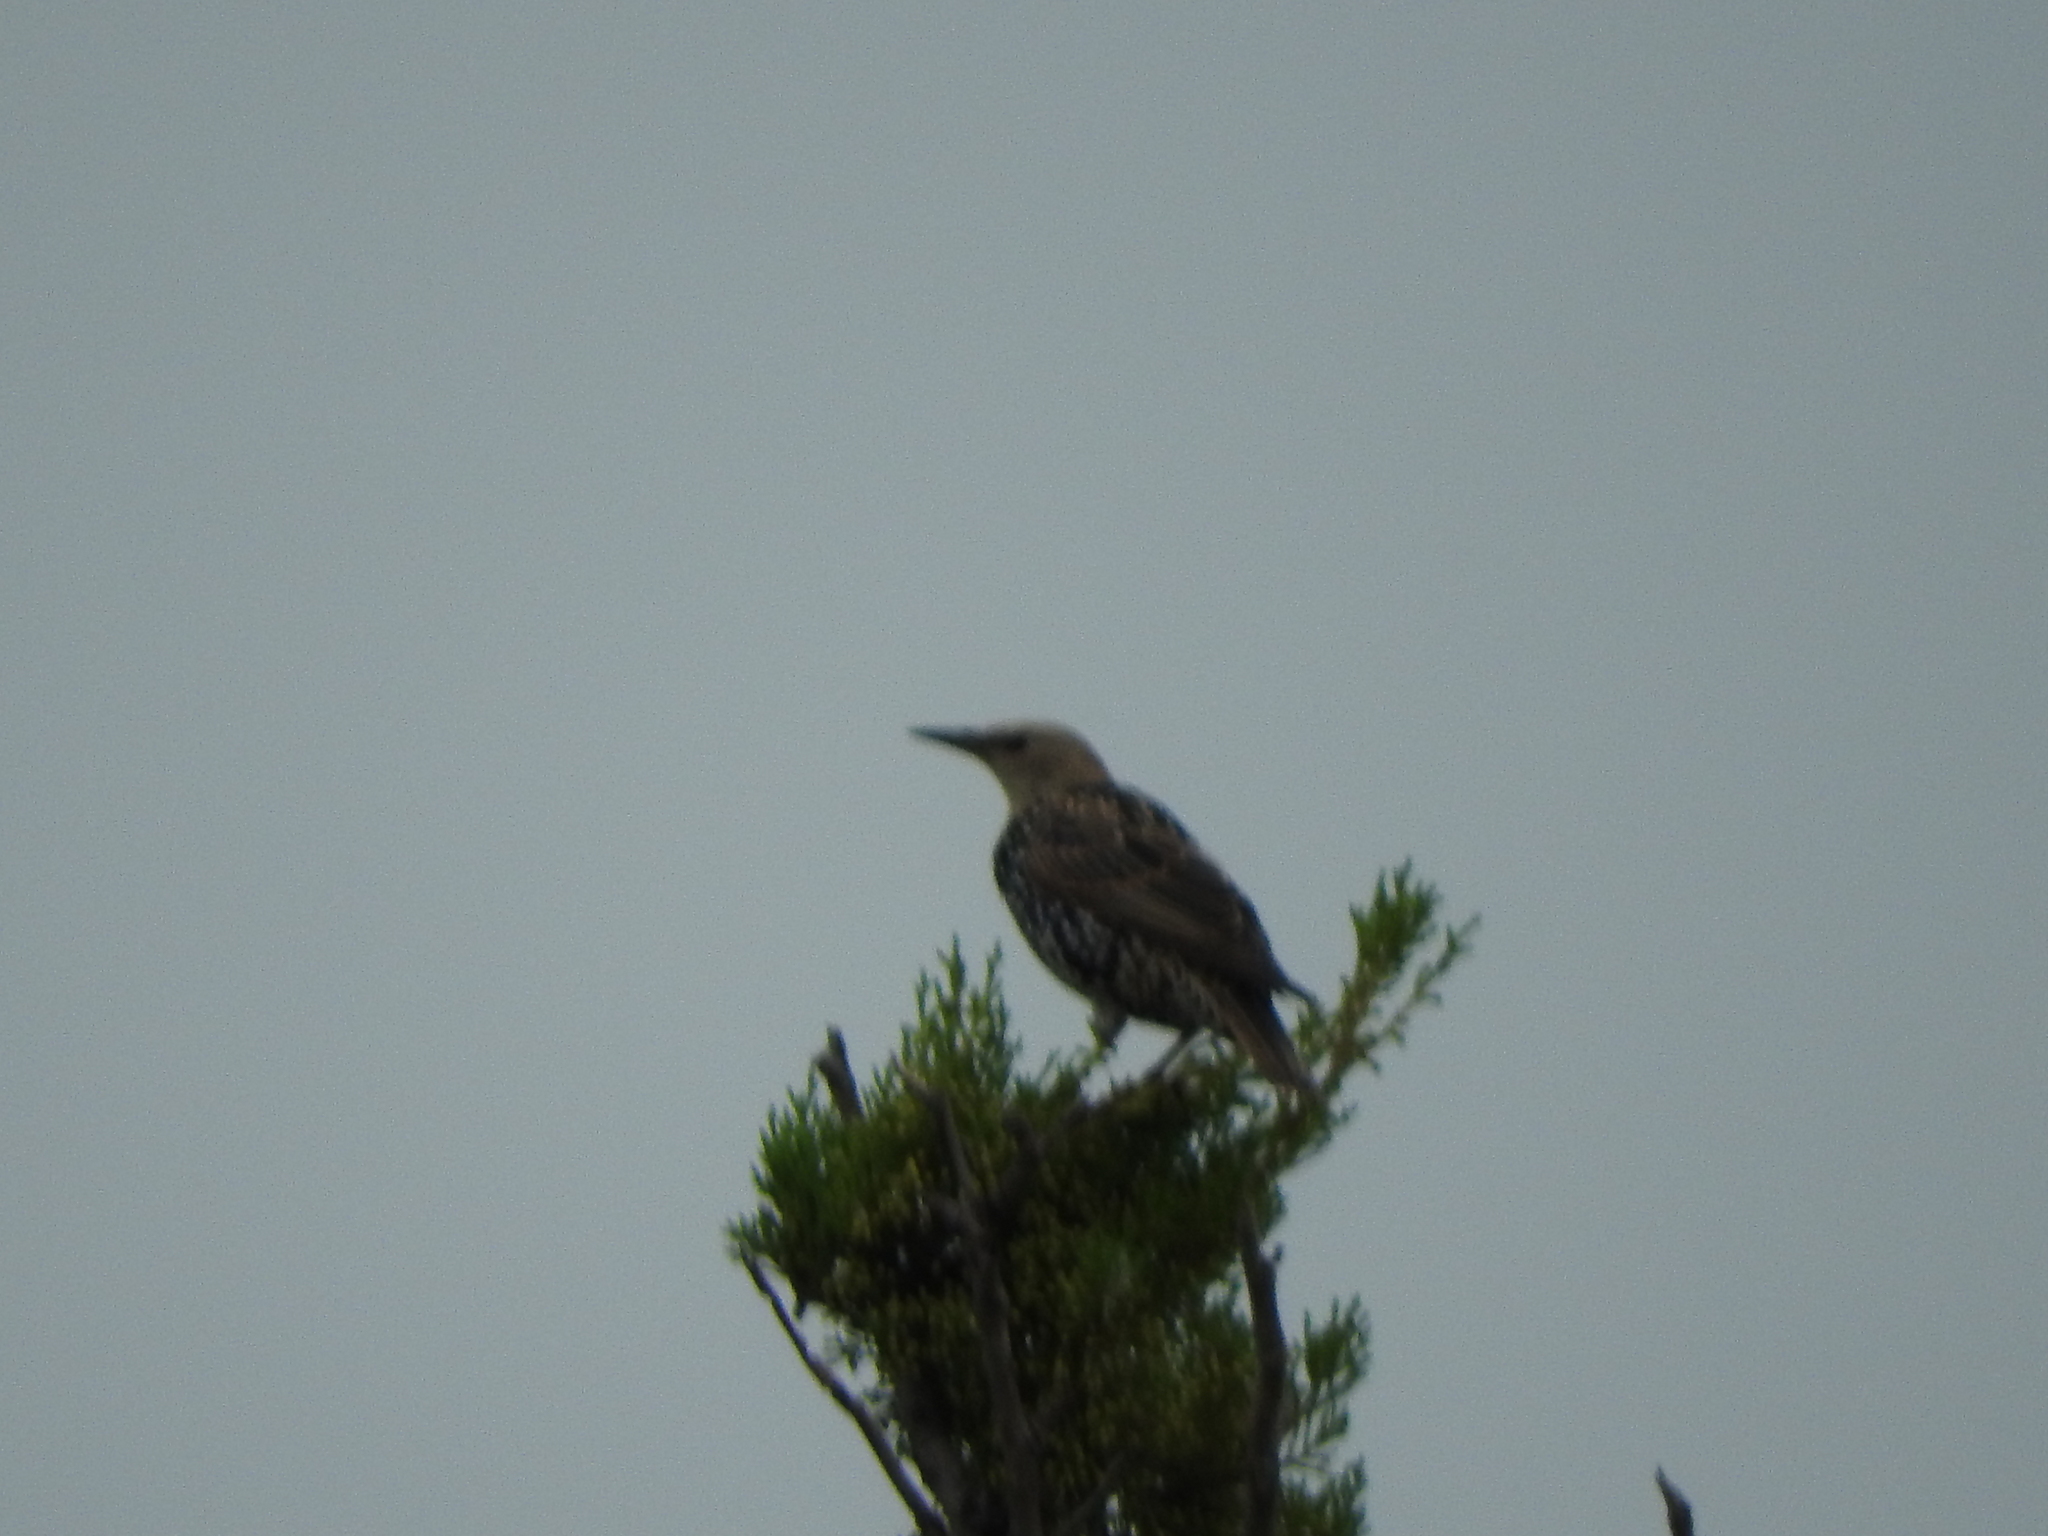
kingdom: Animalia
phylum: Chordata
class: Aves
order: Passeriformes
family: Sturnidae
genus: Sturnus
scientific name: Sturnus vulgaris
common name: Common starling
